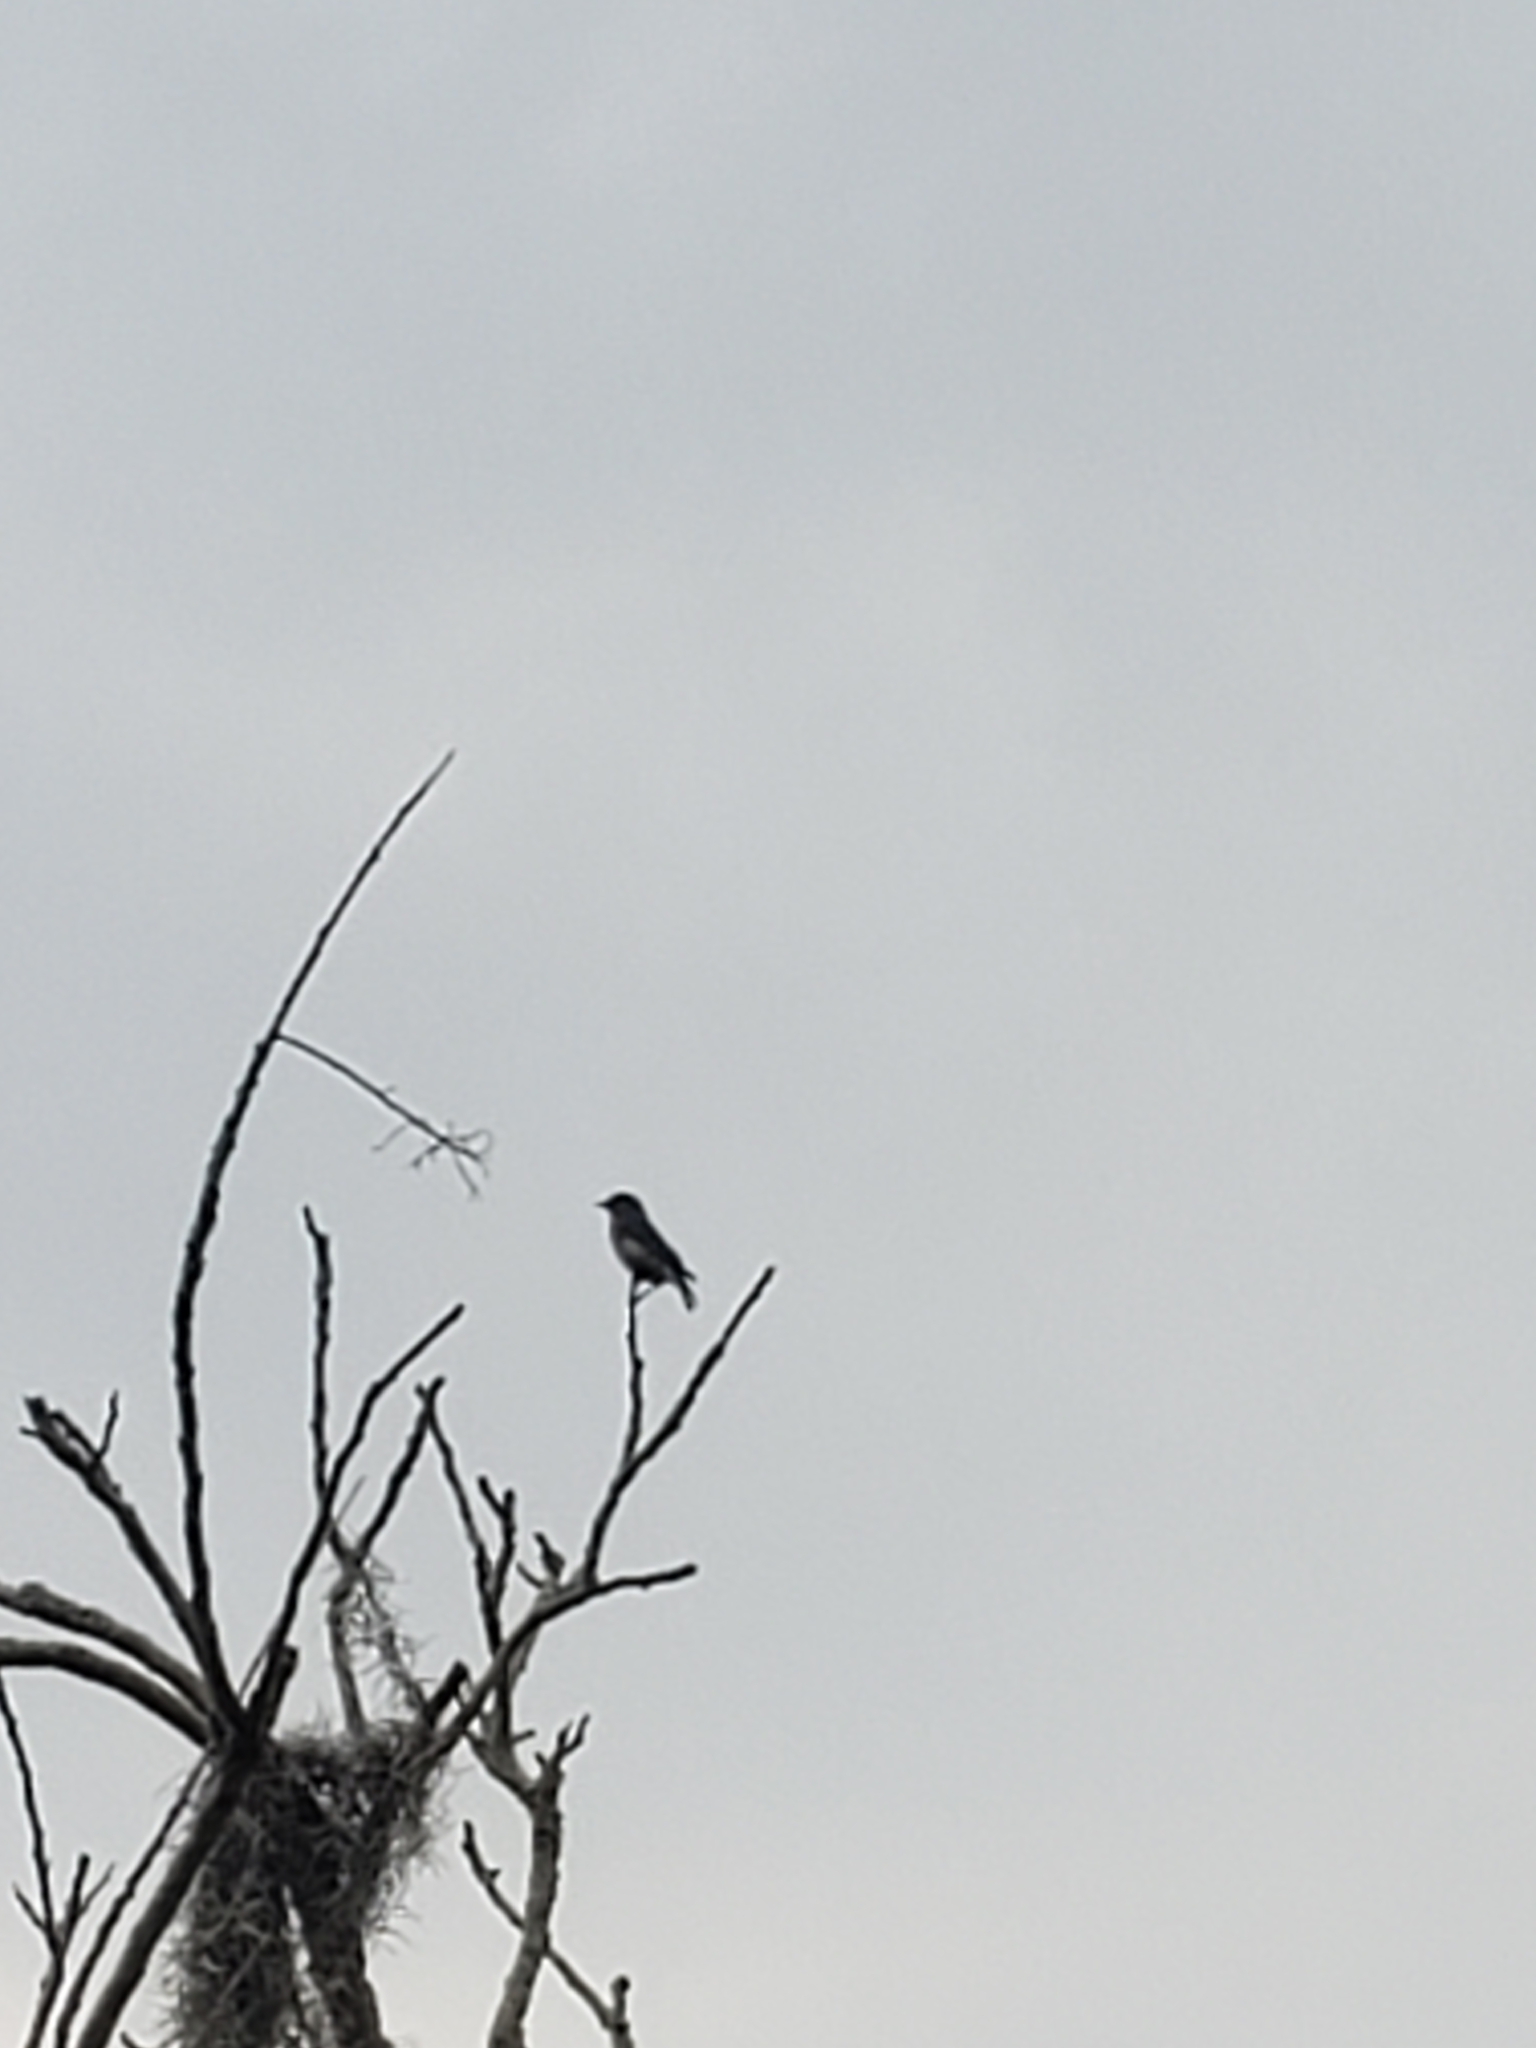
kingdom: Animalia
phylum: Chordata
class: Aves
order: Passeriformes
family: Turdidae
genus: Sialia
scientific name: Sialia sialis
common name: Eastern bluebird
